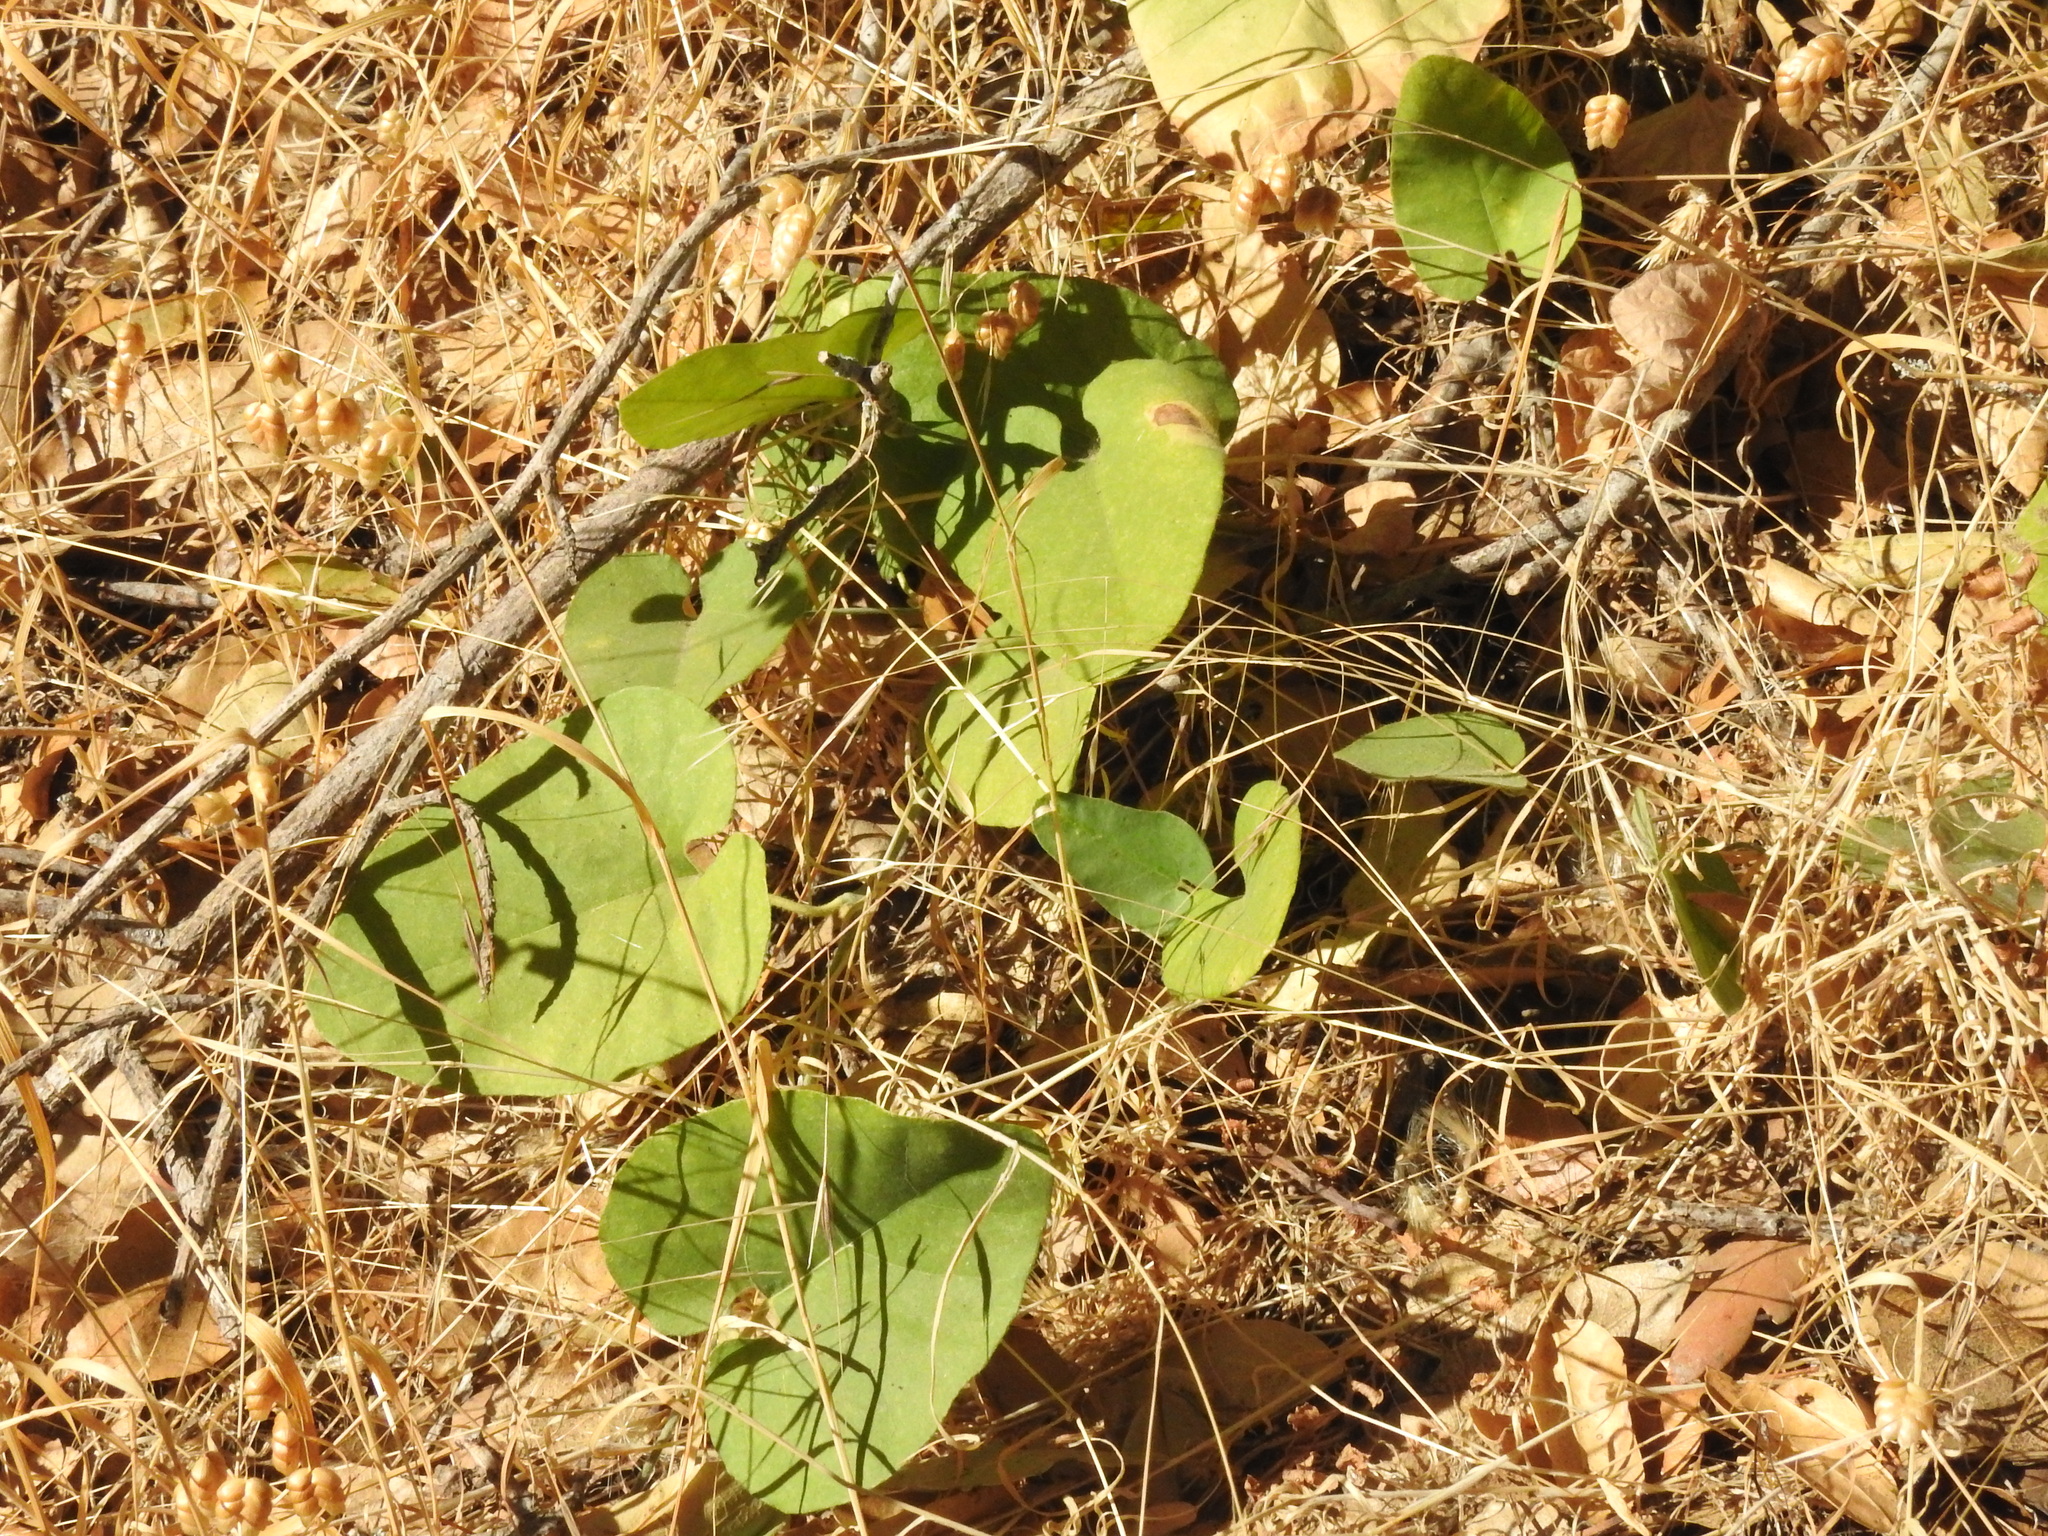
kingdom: Plantae
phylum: Tracheophyta
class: Magnoliopsida
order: Piperales
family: Aristolochiaceae
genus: Isotrema
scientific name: Isotrema californicum
